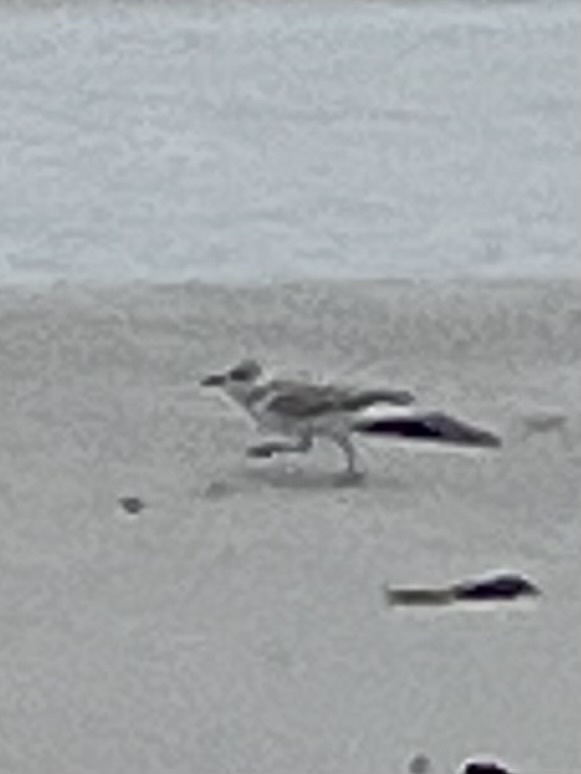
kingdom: Animalia
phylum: Chordata
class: Aves
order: Charadriiformes
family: Charadriidae
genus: Anarhynchus
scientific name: Anarhynchus
